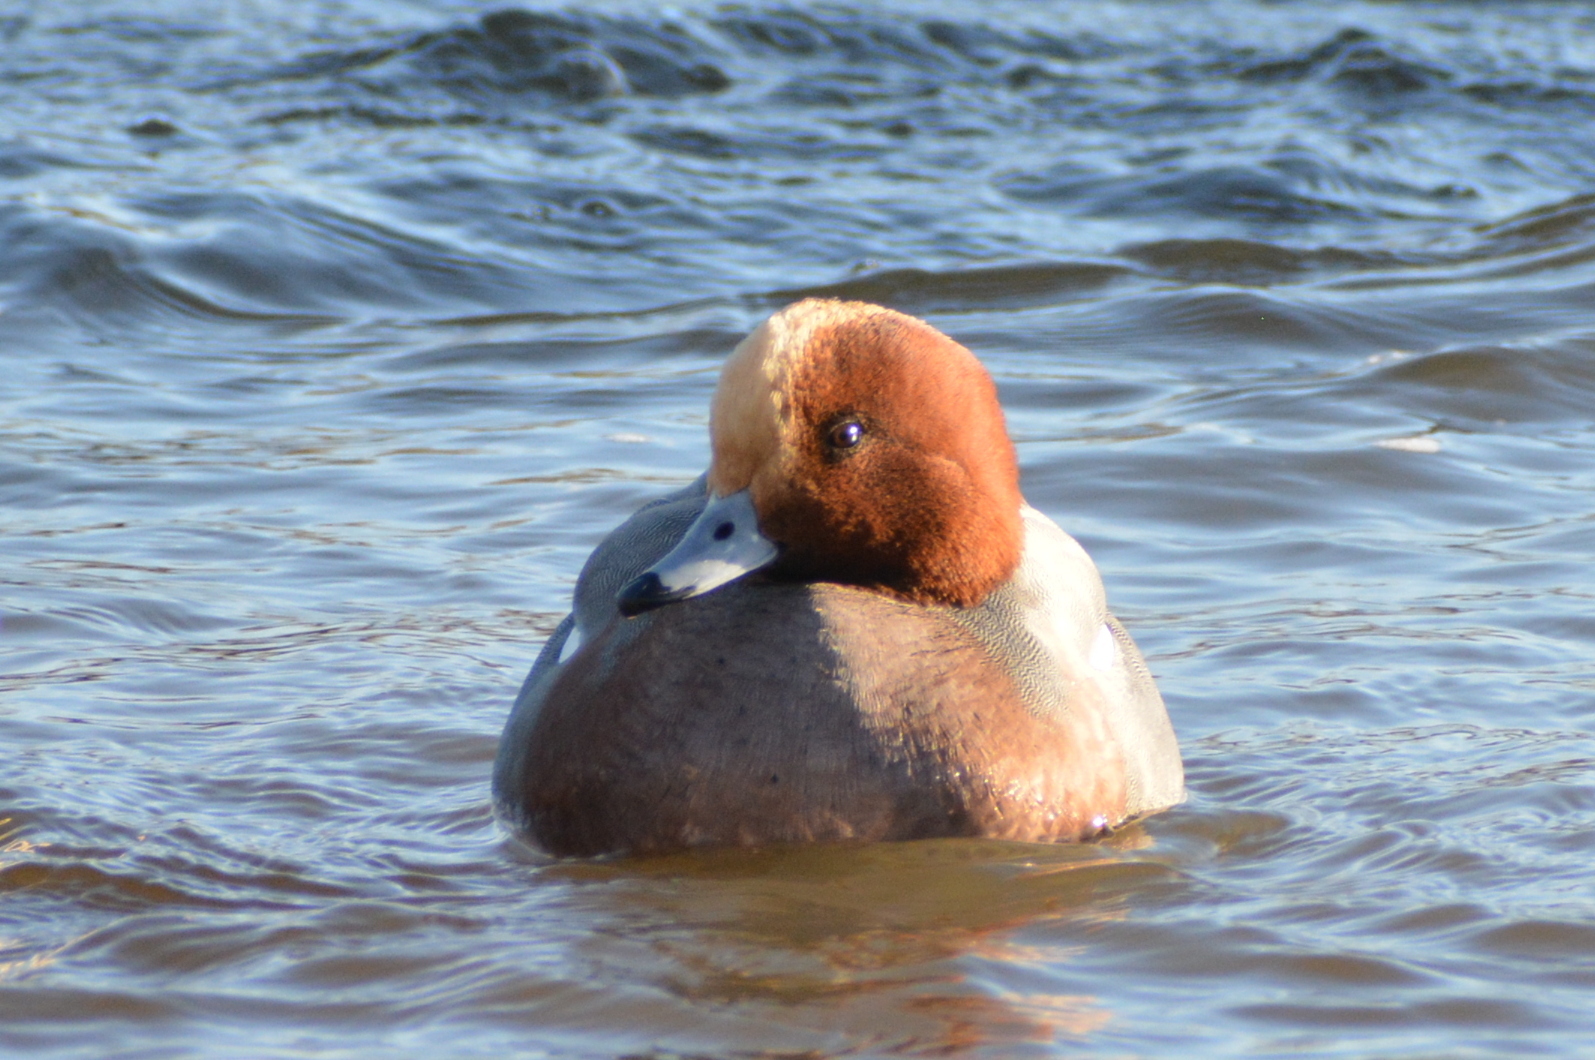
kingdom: Animalia
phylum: Chordata
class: Aves
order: Anseriformes
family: Anatidae
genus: Mareca
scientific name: Mareca penelope
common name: Eurasian wigeon
